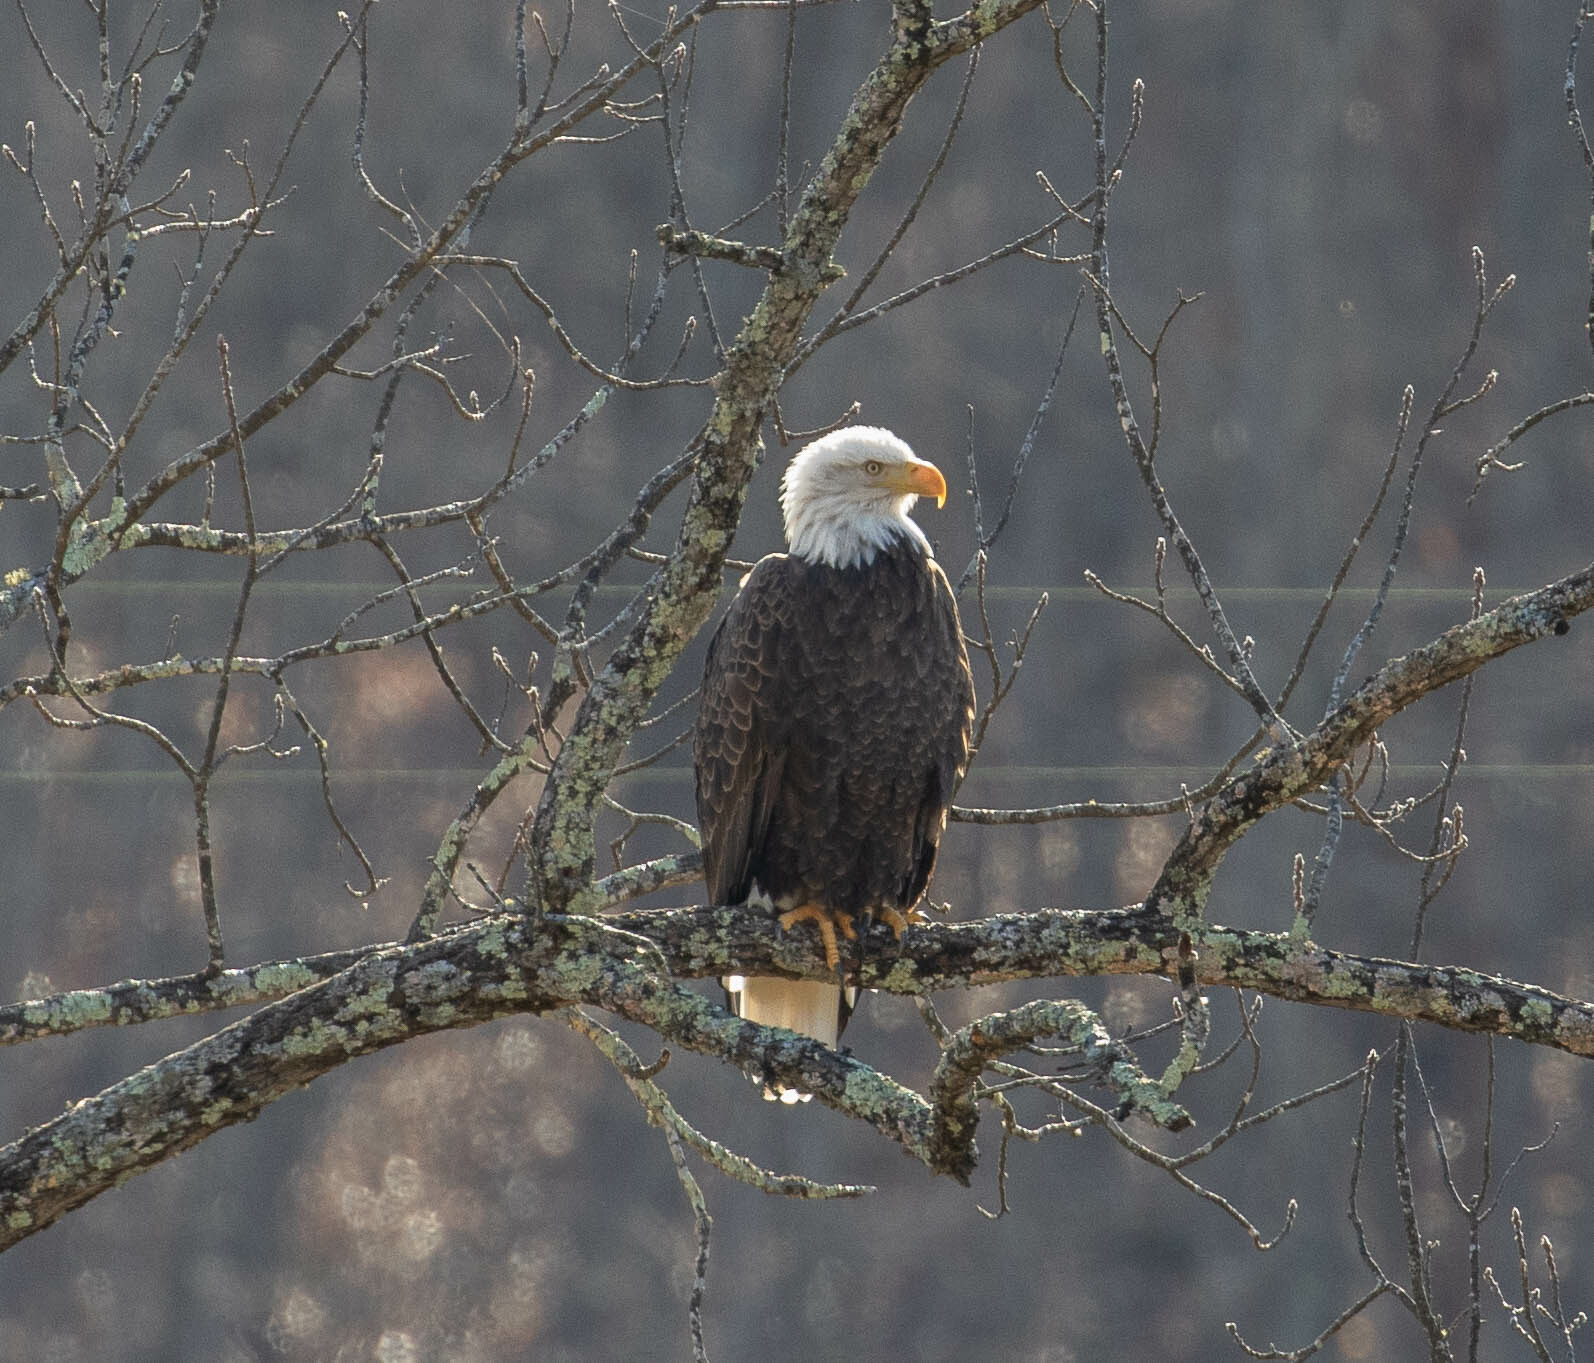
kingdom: Animalia
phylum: Chordata
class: Aves
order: Accipitriformes
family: Accipitridae
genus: Haliaeetus
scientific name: Haliaeetus leucocephalus
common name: Bald eagle
